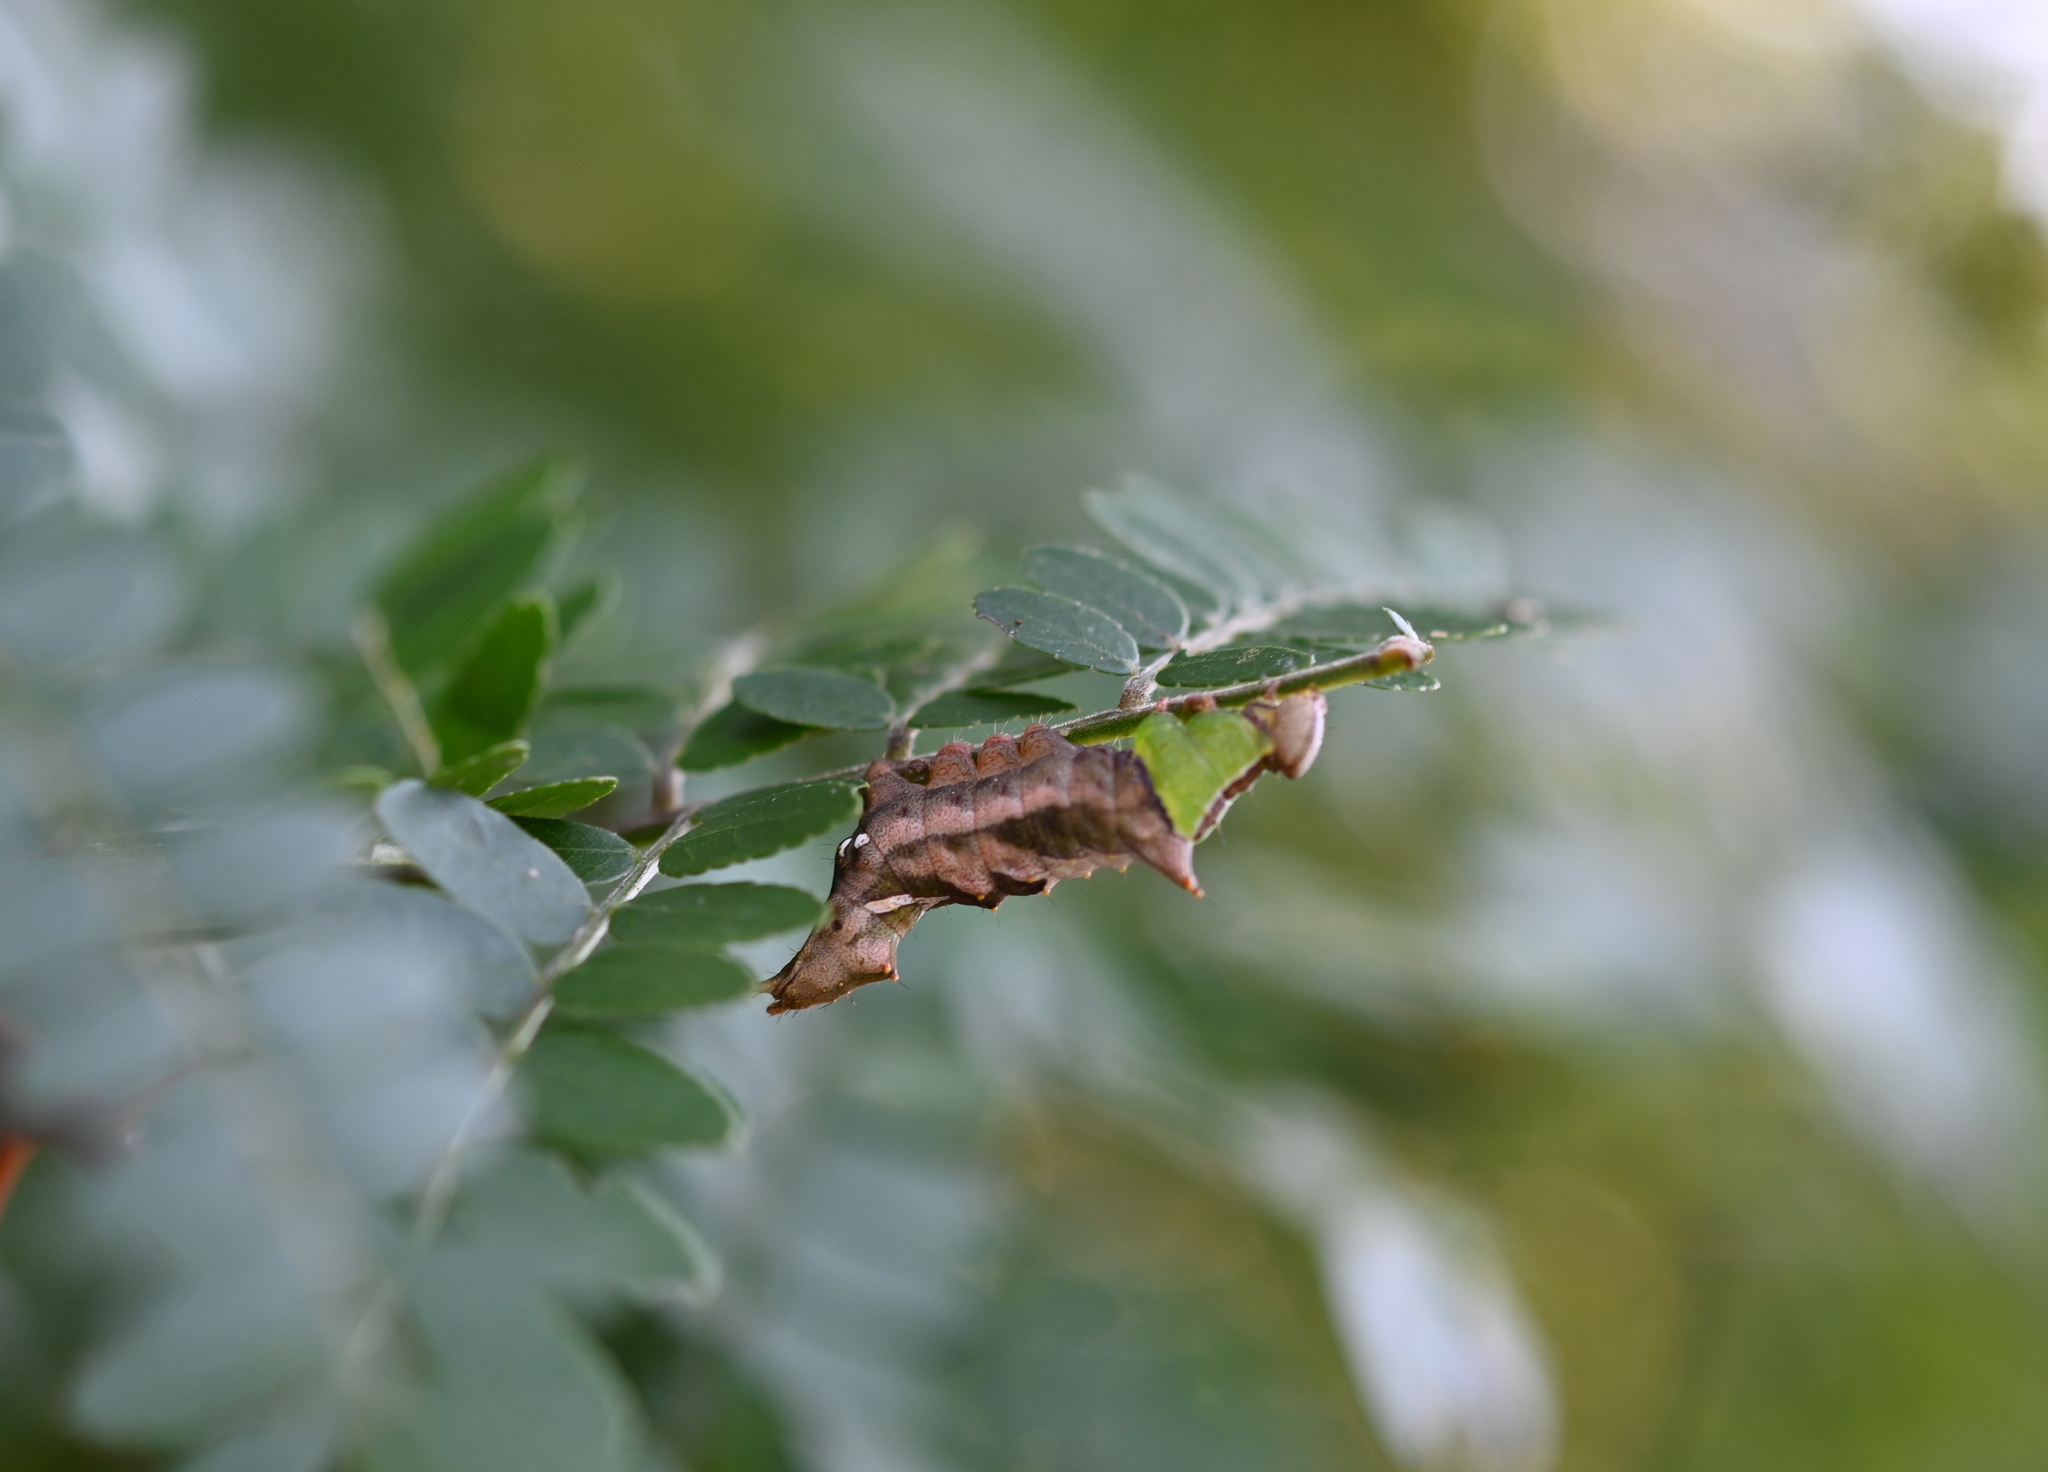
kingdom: Animalia
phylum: Arthropoda
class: Insecta
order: Lepidoptera
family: Notodontidae
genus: Schizura
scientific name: Schizura
